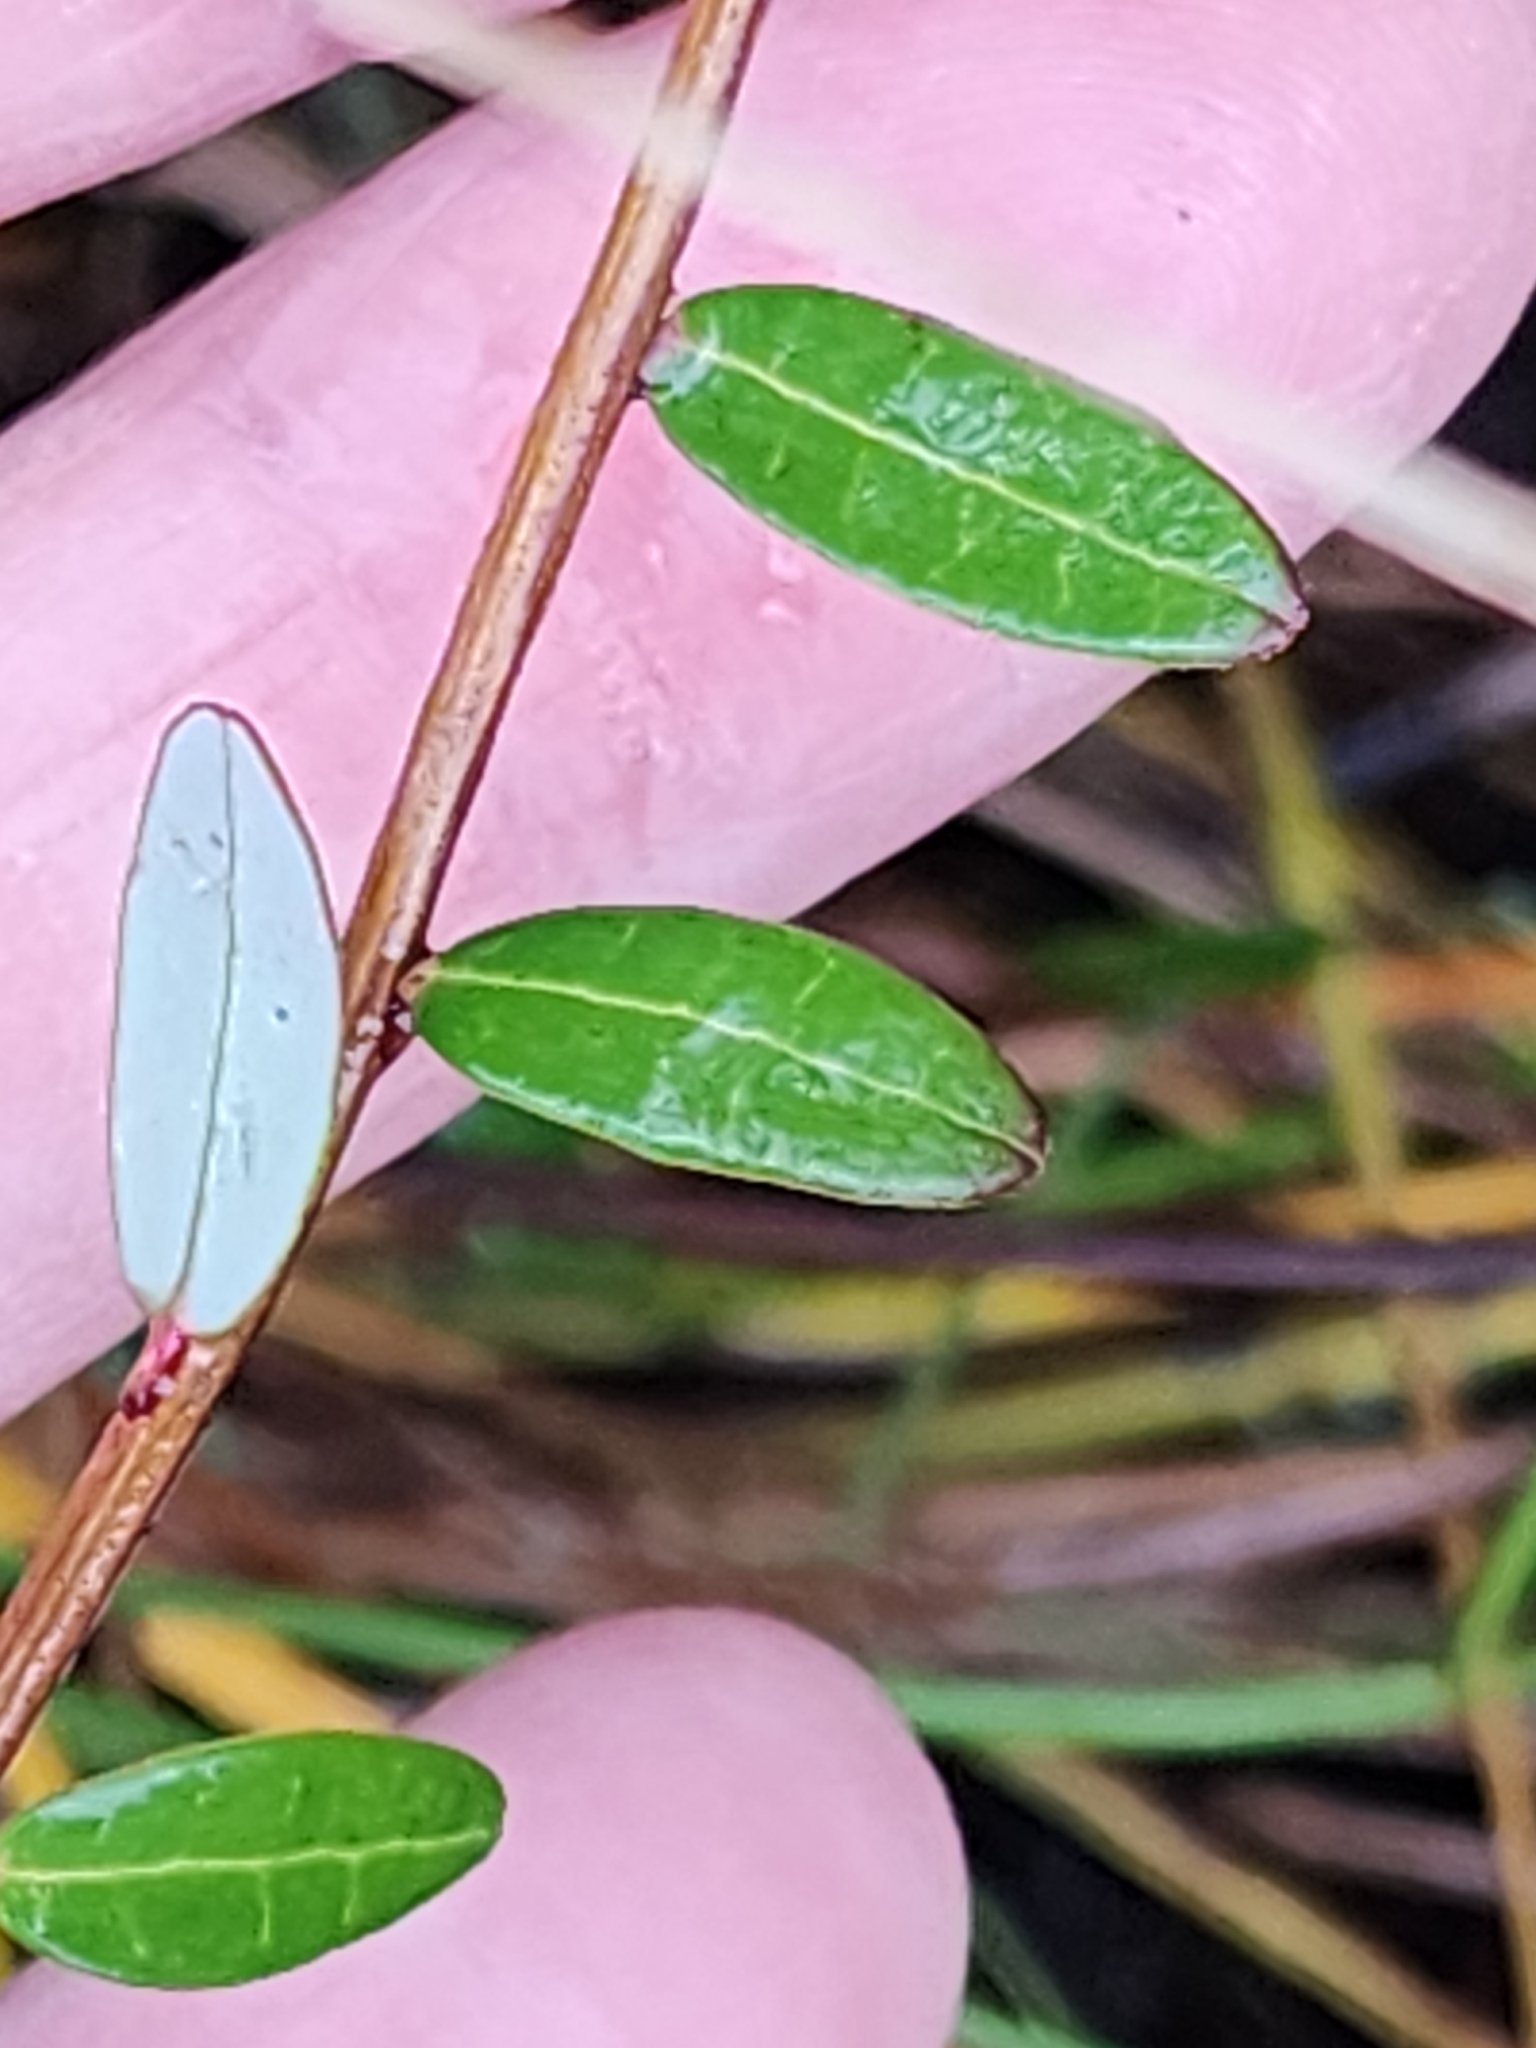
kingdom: Plantae
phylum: Tracheophyta
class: Magnoliopsida
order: Ericales
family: Ericaceae
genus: Vaccinium
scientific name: Vaccinium macrocarpon
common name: American cranberry
